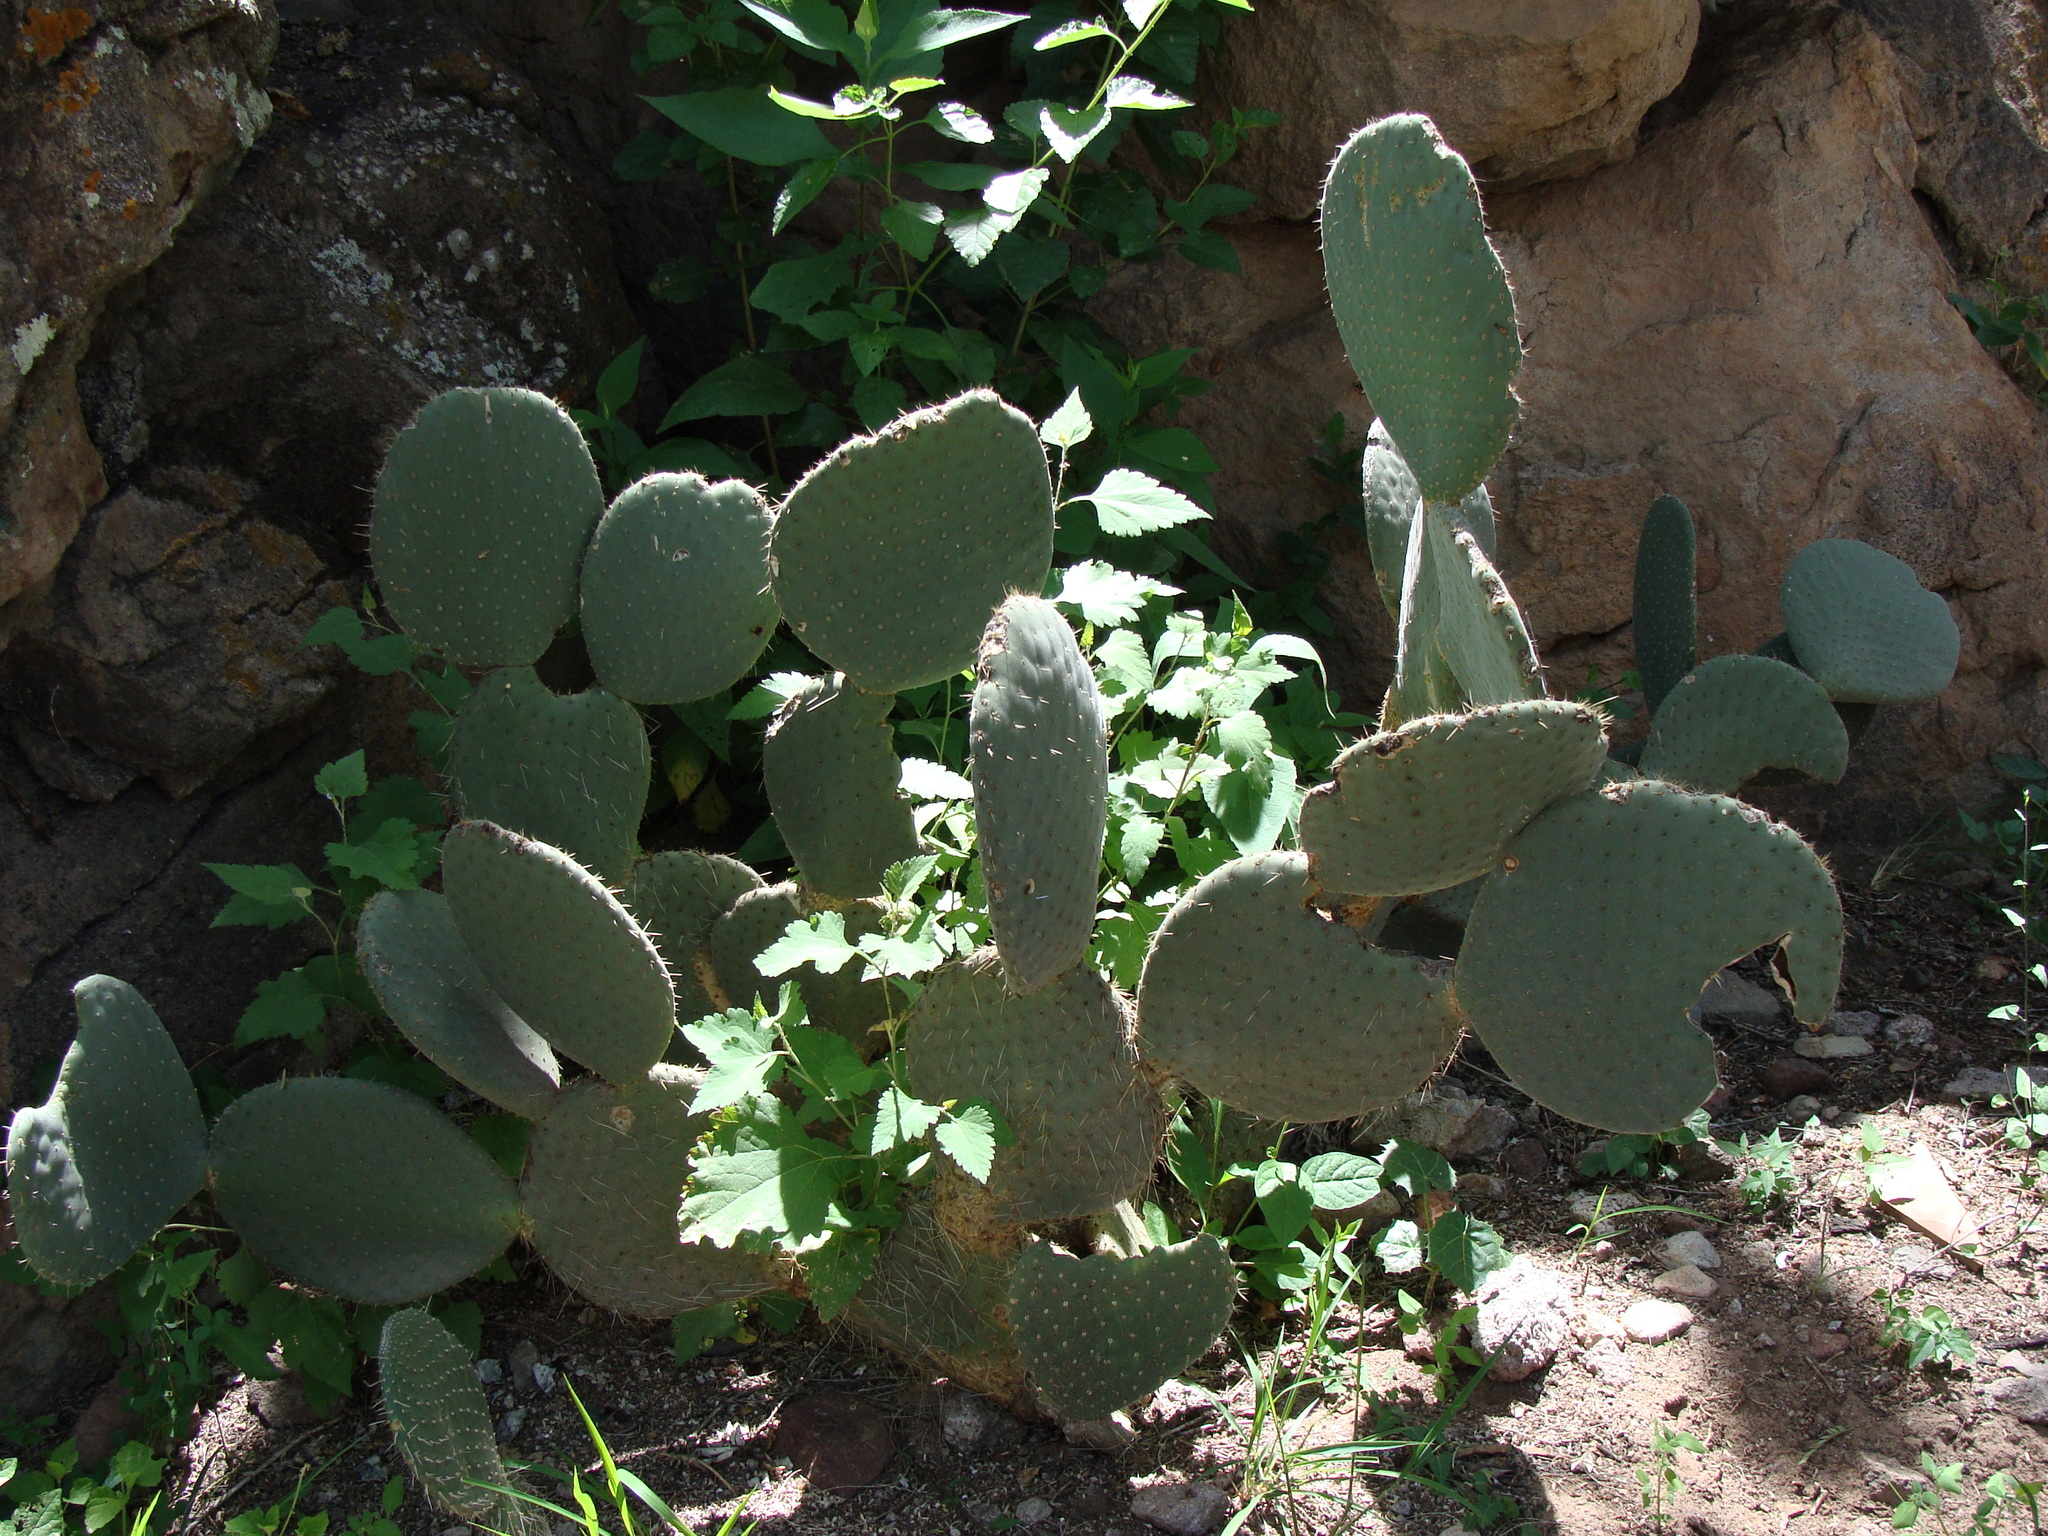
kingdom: Plantae
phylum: Tracheophyta
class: Magnoliopsida
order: Caryophyllales
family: Cactaceae
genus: Opuntia
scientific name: Opuntia scheeri
